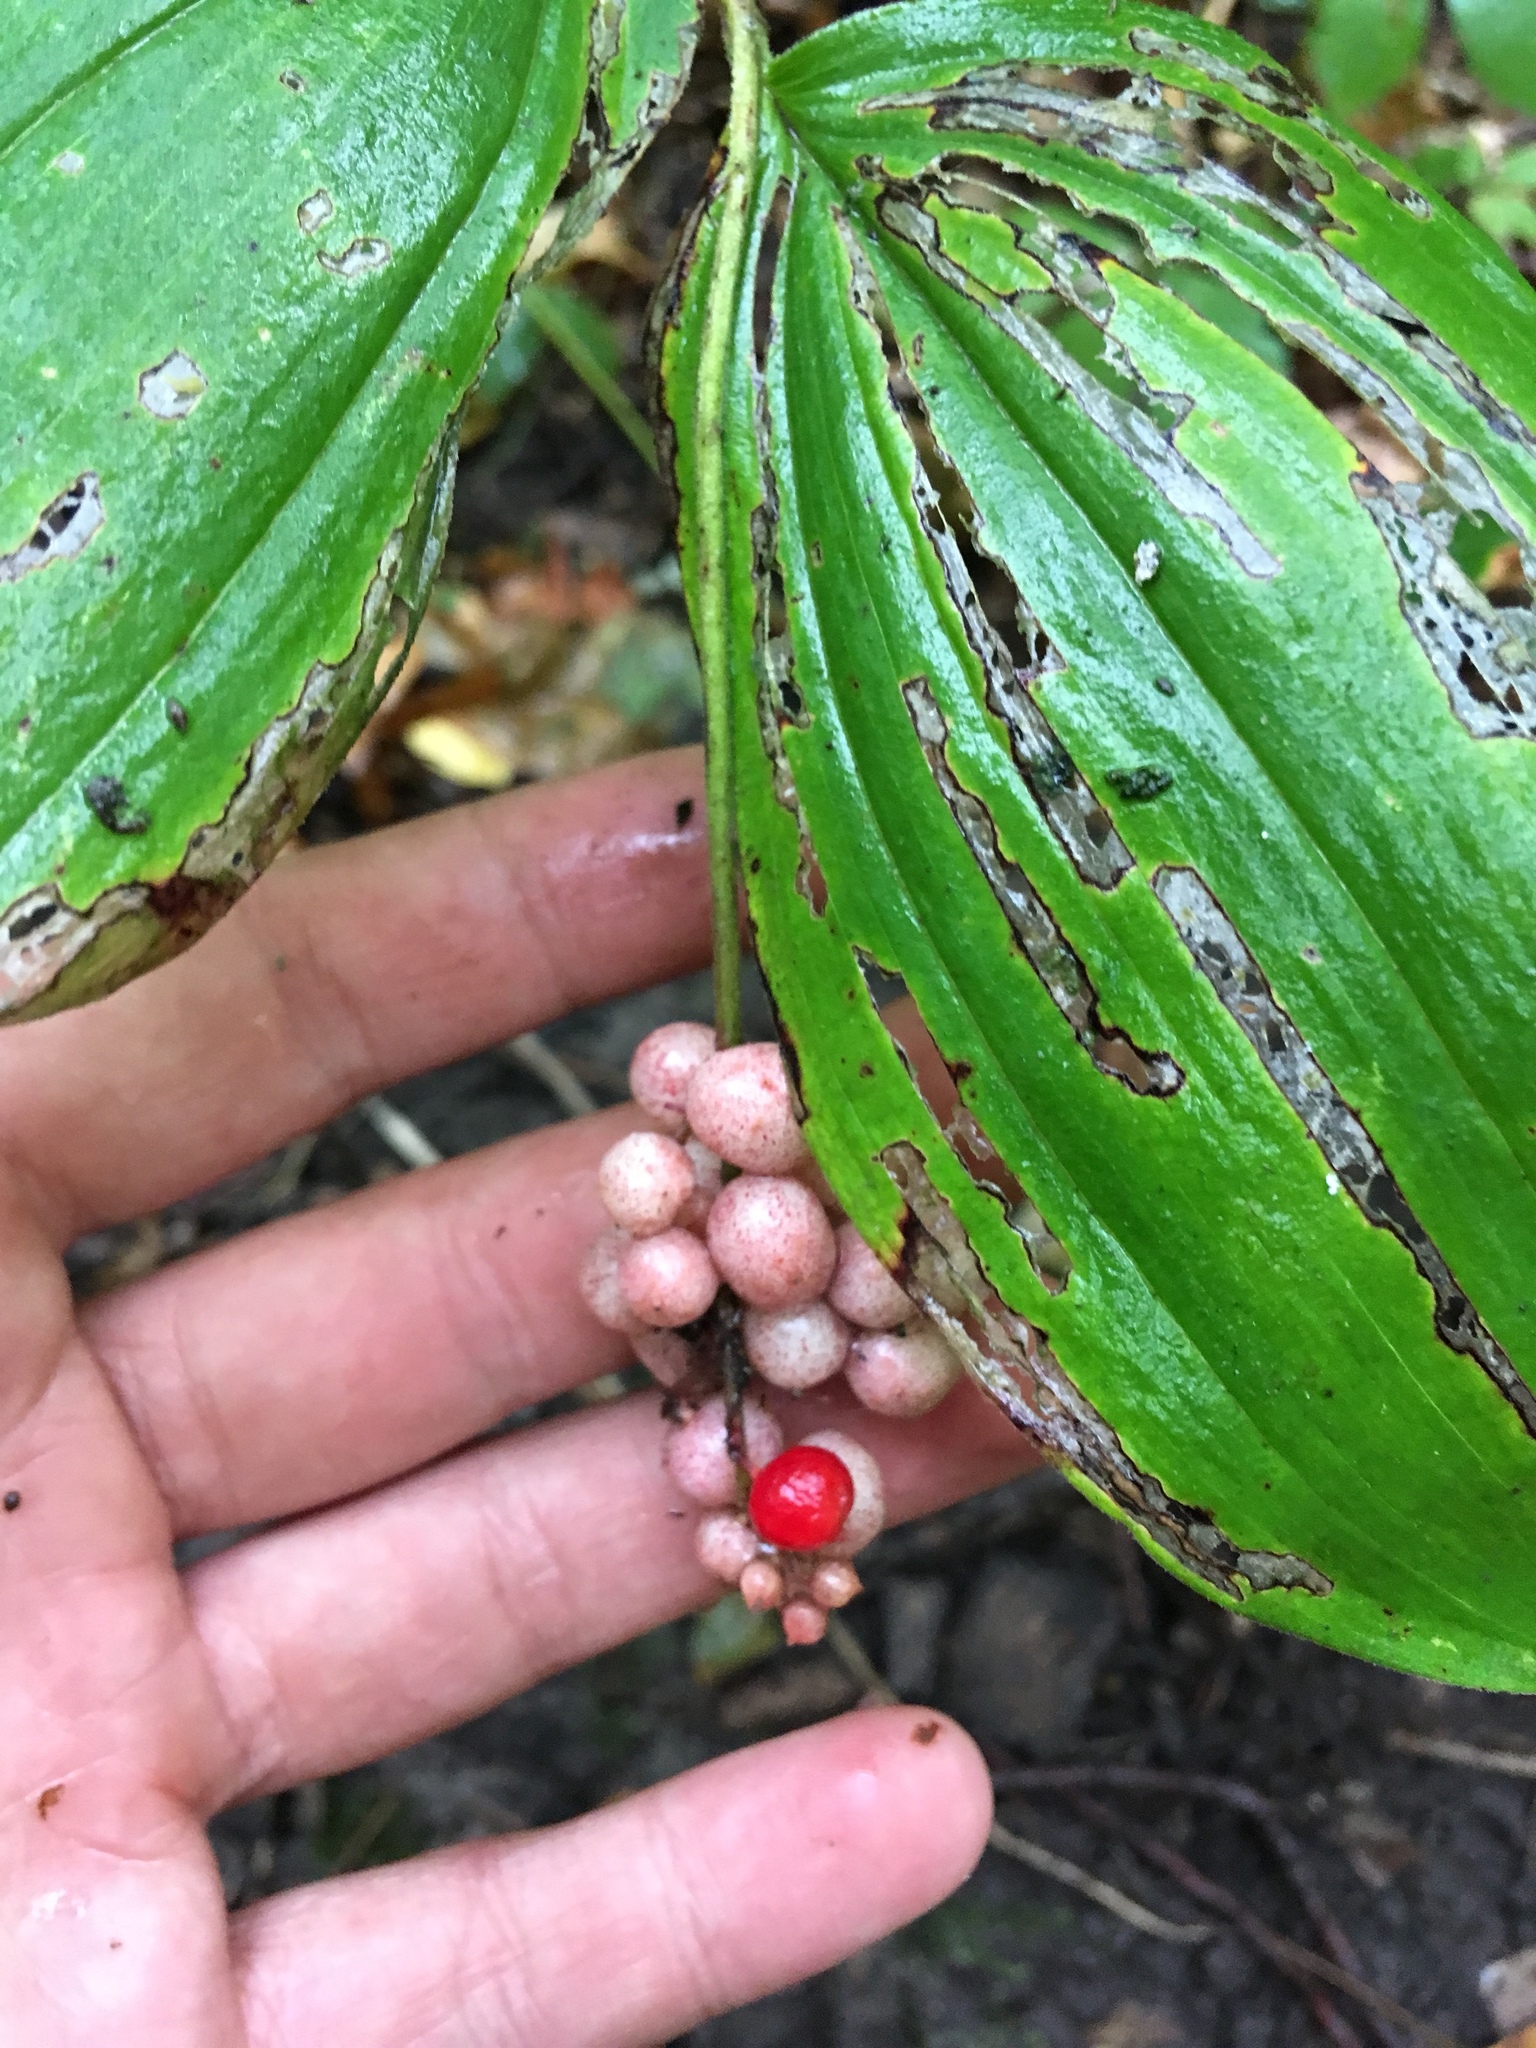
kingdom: Plantae
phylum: Tracheophyta
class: Liliopsida
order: Asparagales
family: Asparagaceae
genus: Maianthemum
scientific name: Maianthemum racemosum
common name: False spikenard
